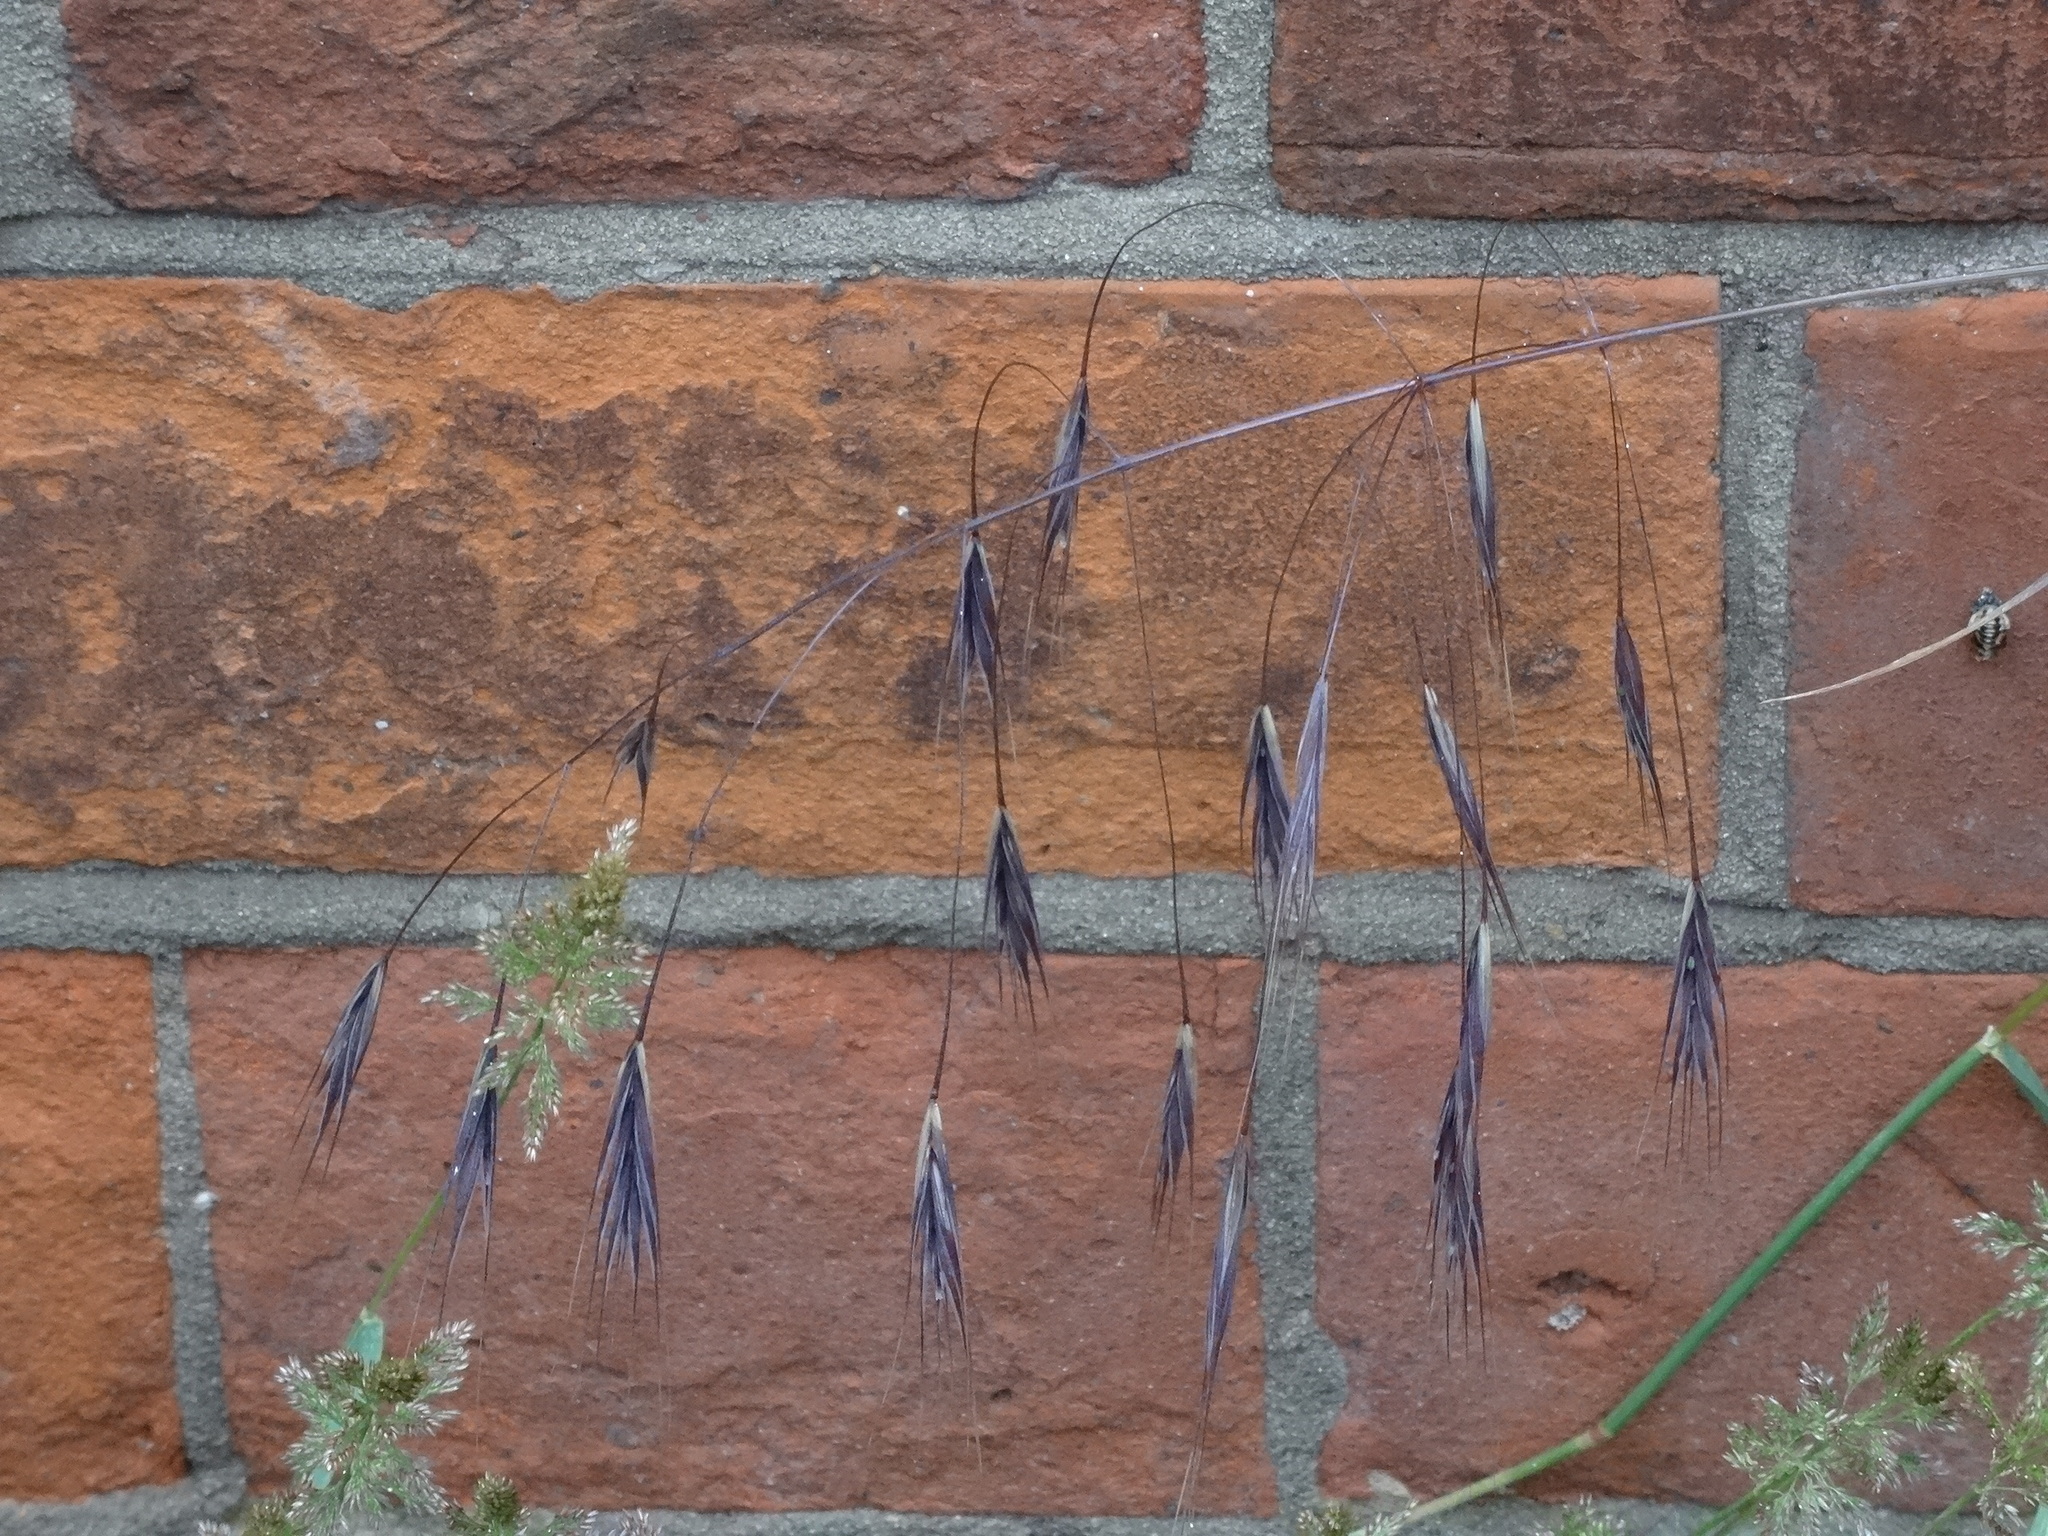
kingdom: Plantae
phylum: Tracheophyta
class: Liliopsida
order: Poales
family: Poaceae
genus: Bromus
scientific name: Bromus sterilis
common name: Poverty brome
